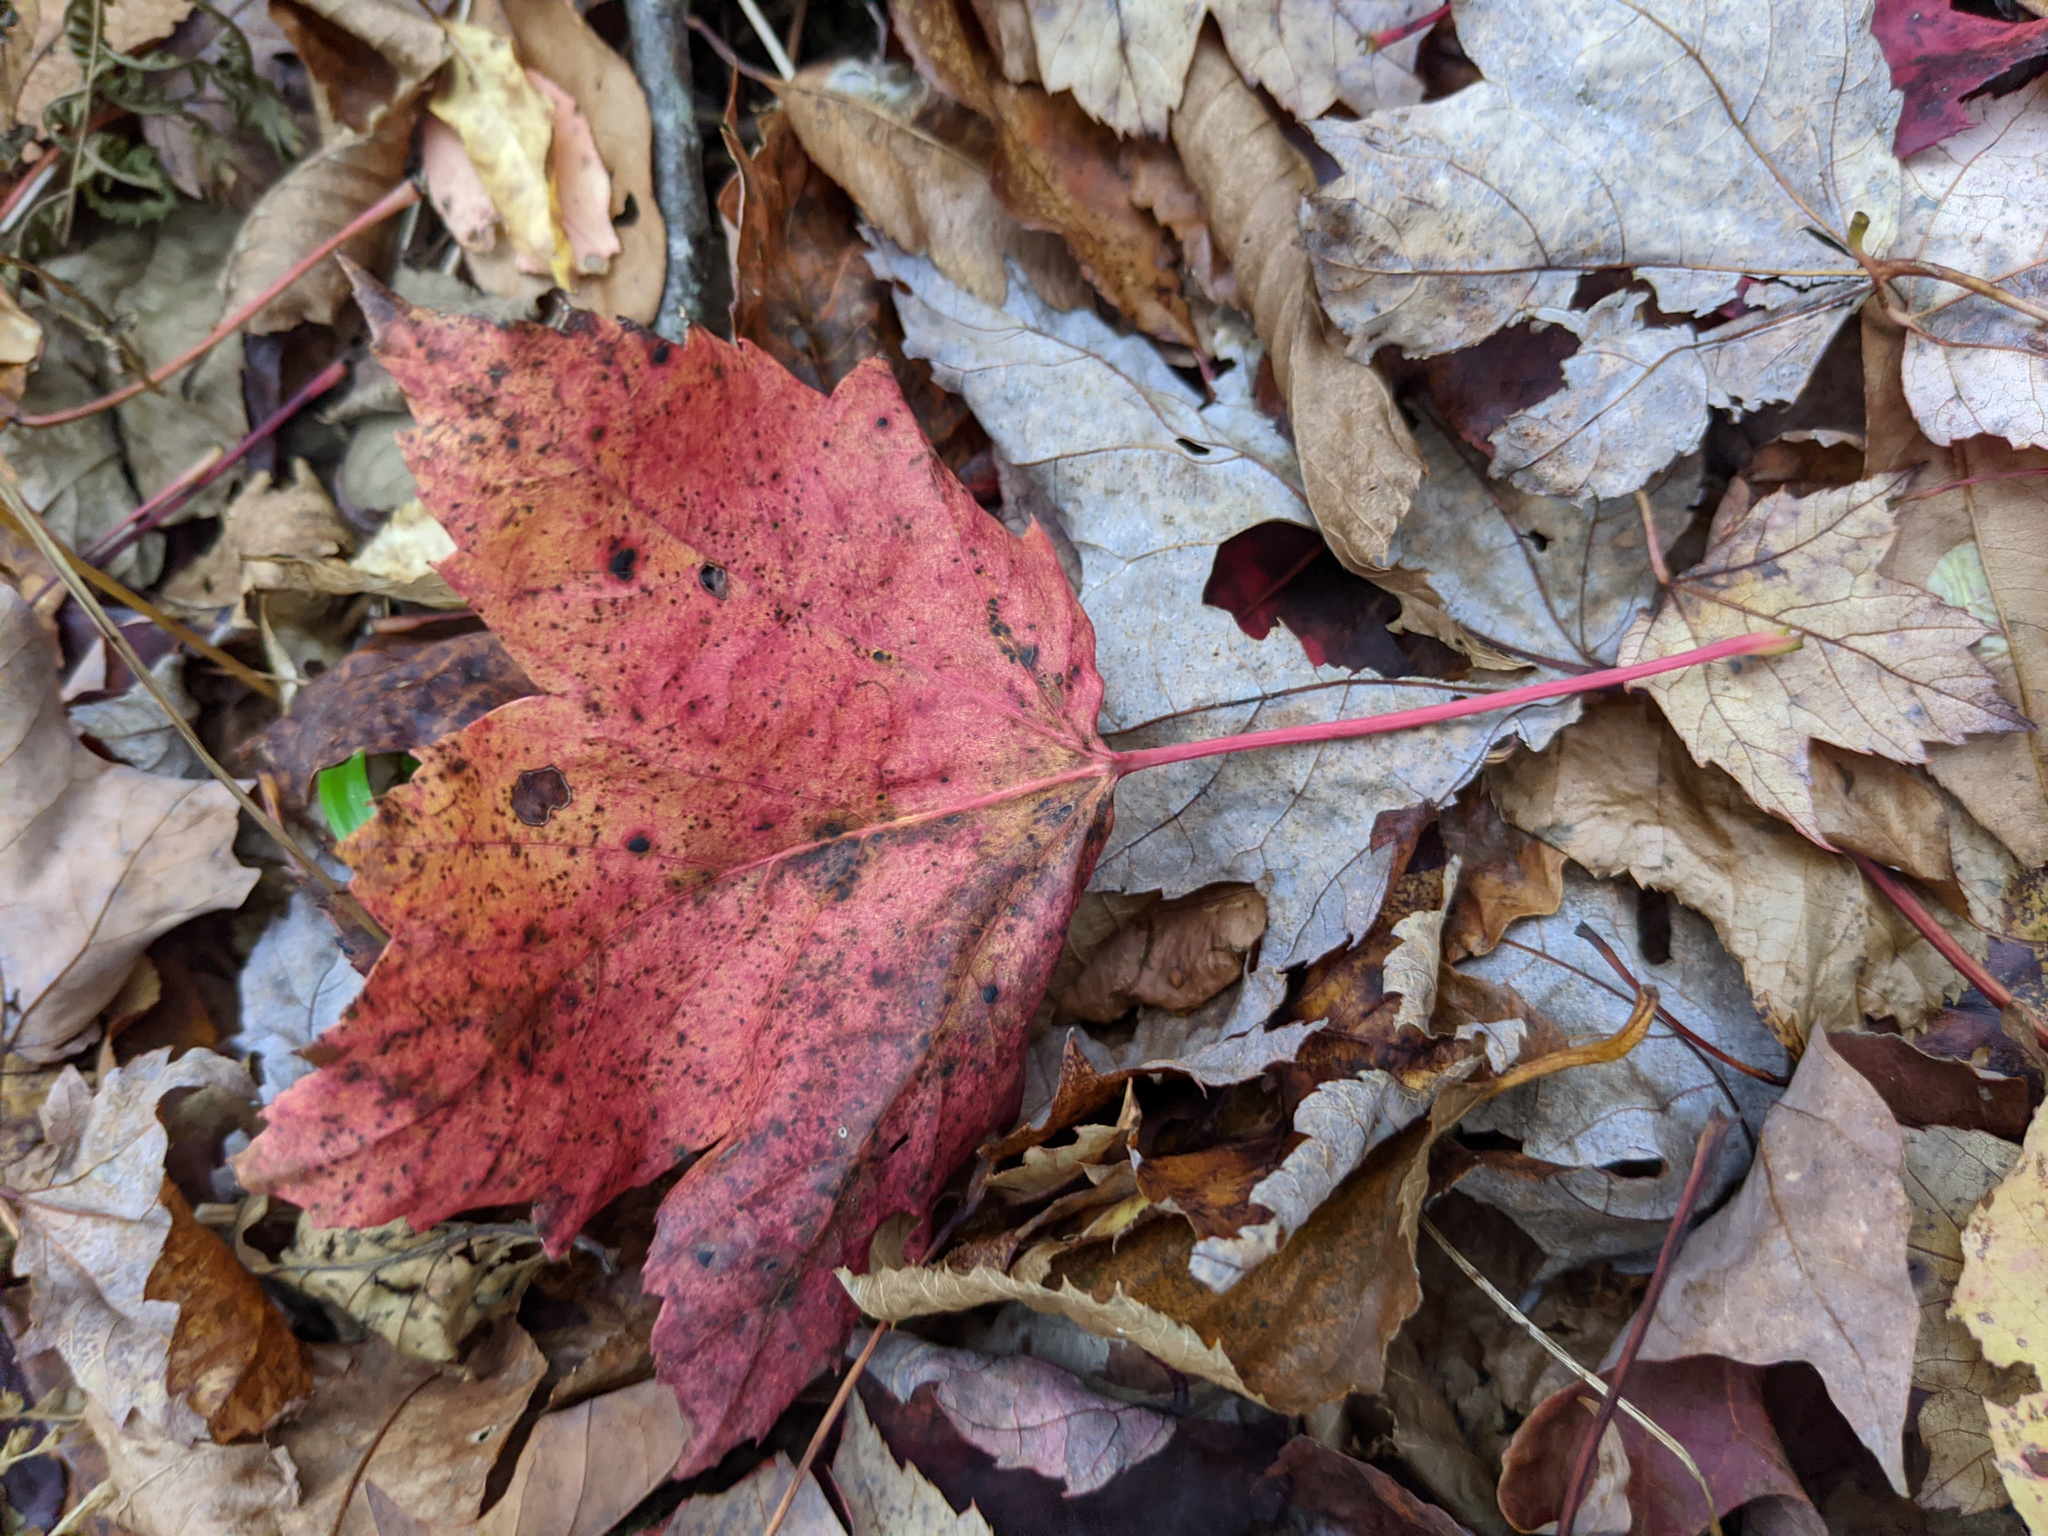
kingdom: Plantae
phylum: Tracheophyta
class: Magnoliopsida
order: Sapindales
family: Sapindaceae
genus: Acer
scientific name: Acer rubrum
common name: Red maple
